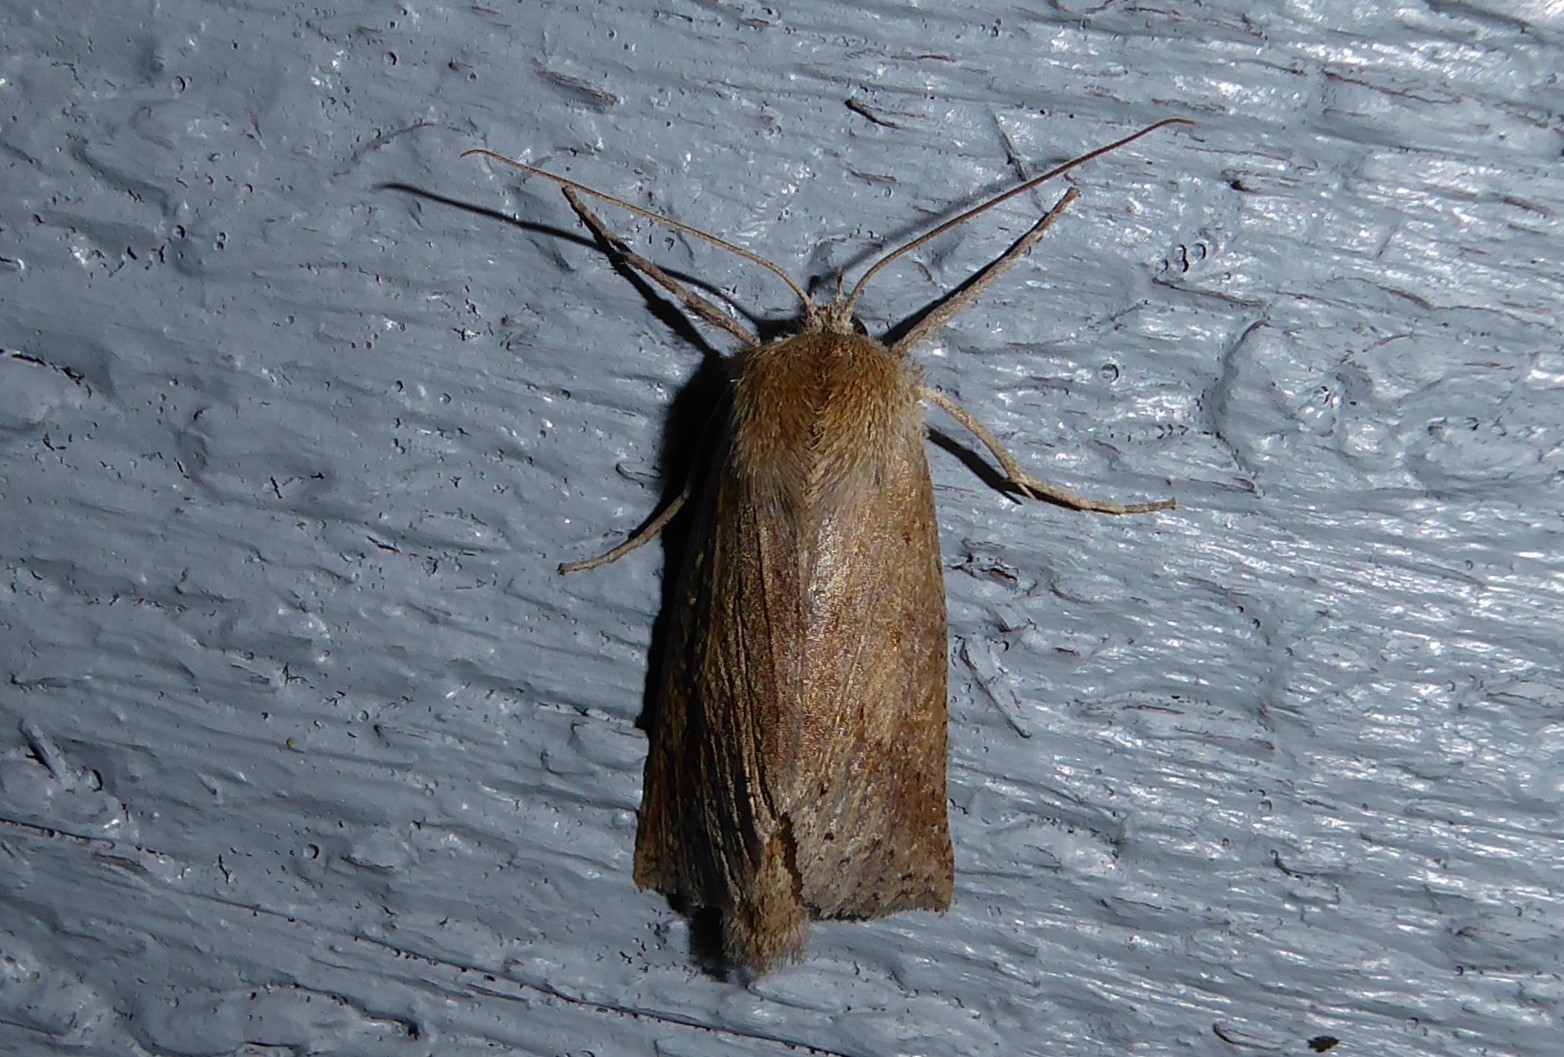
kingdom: Animalia
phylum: Arthropoda
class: Insecta
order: Lepidoptera
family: Geometridae
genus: Declana
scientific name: Declana leptomera
